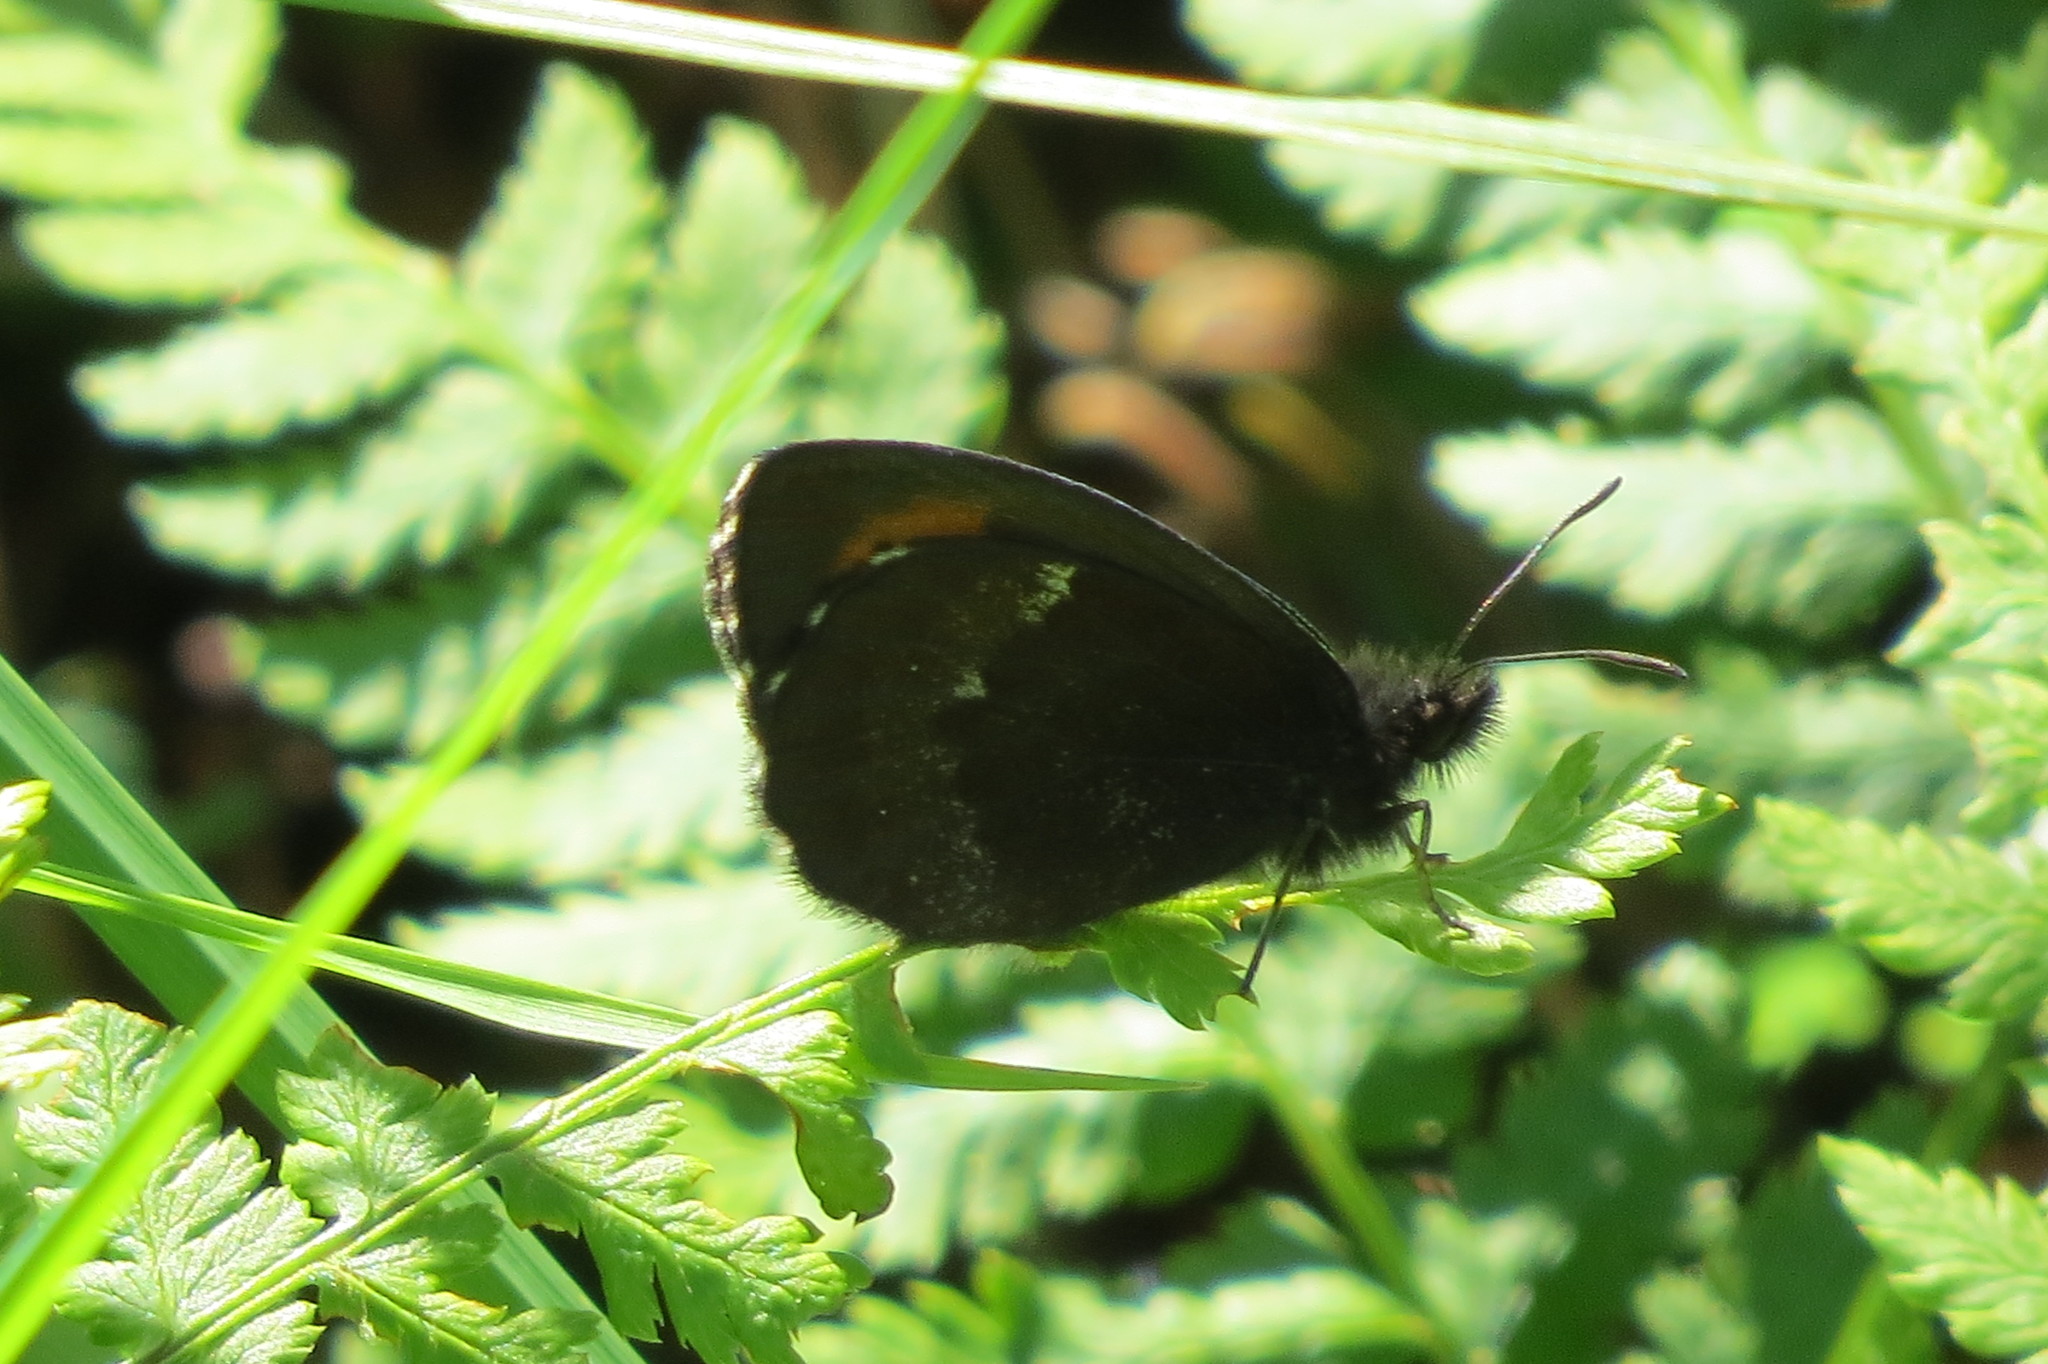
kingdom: Animalia
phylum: Arthropoda
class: Insecta
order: Lepidoptera
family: Nymphalidae
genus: Erebia
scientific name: Erebia euryale
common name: Large ringlet
